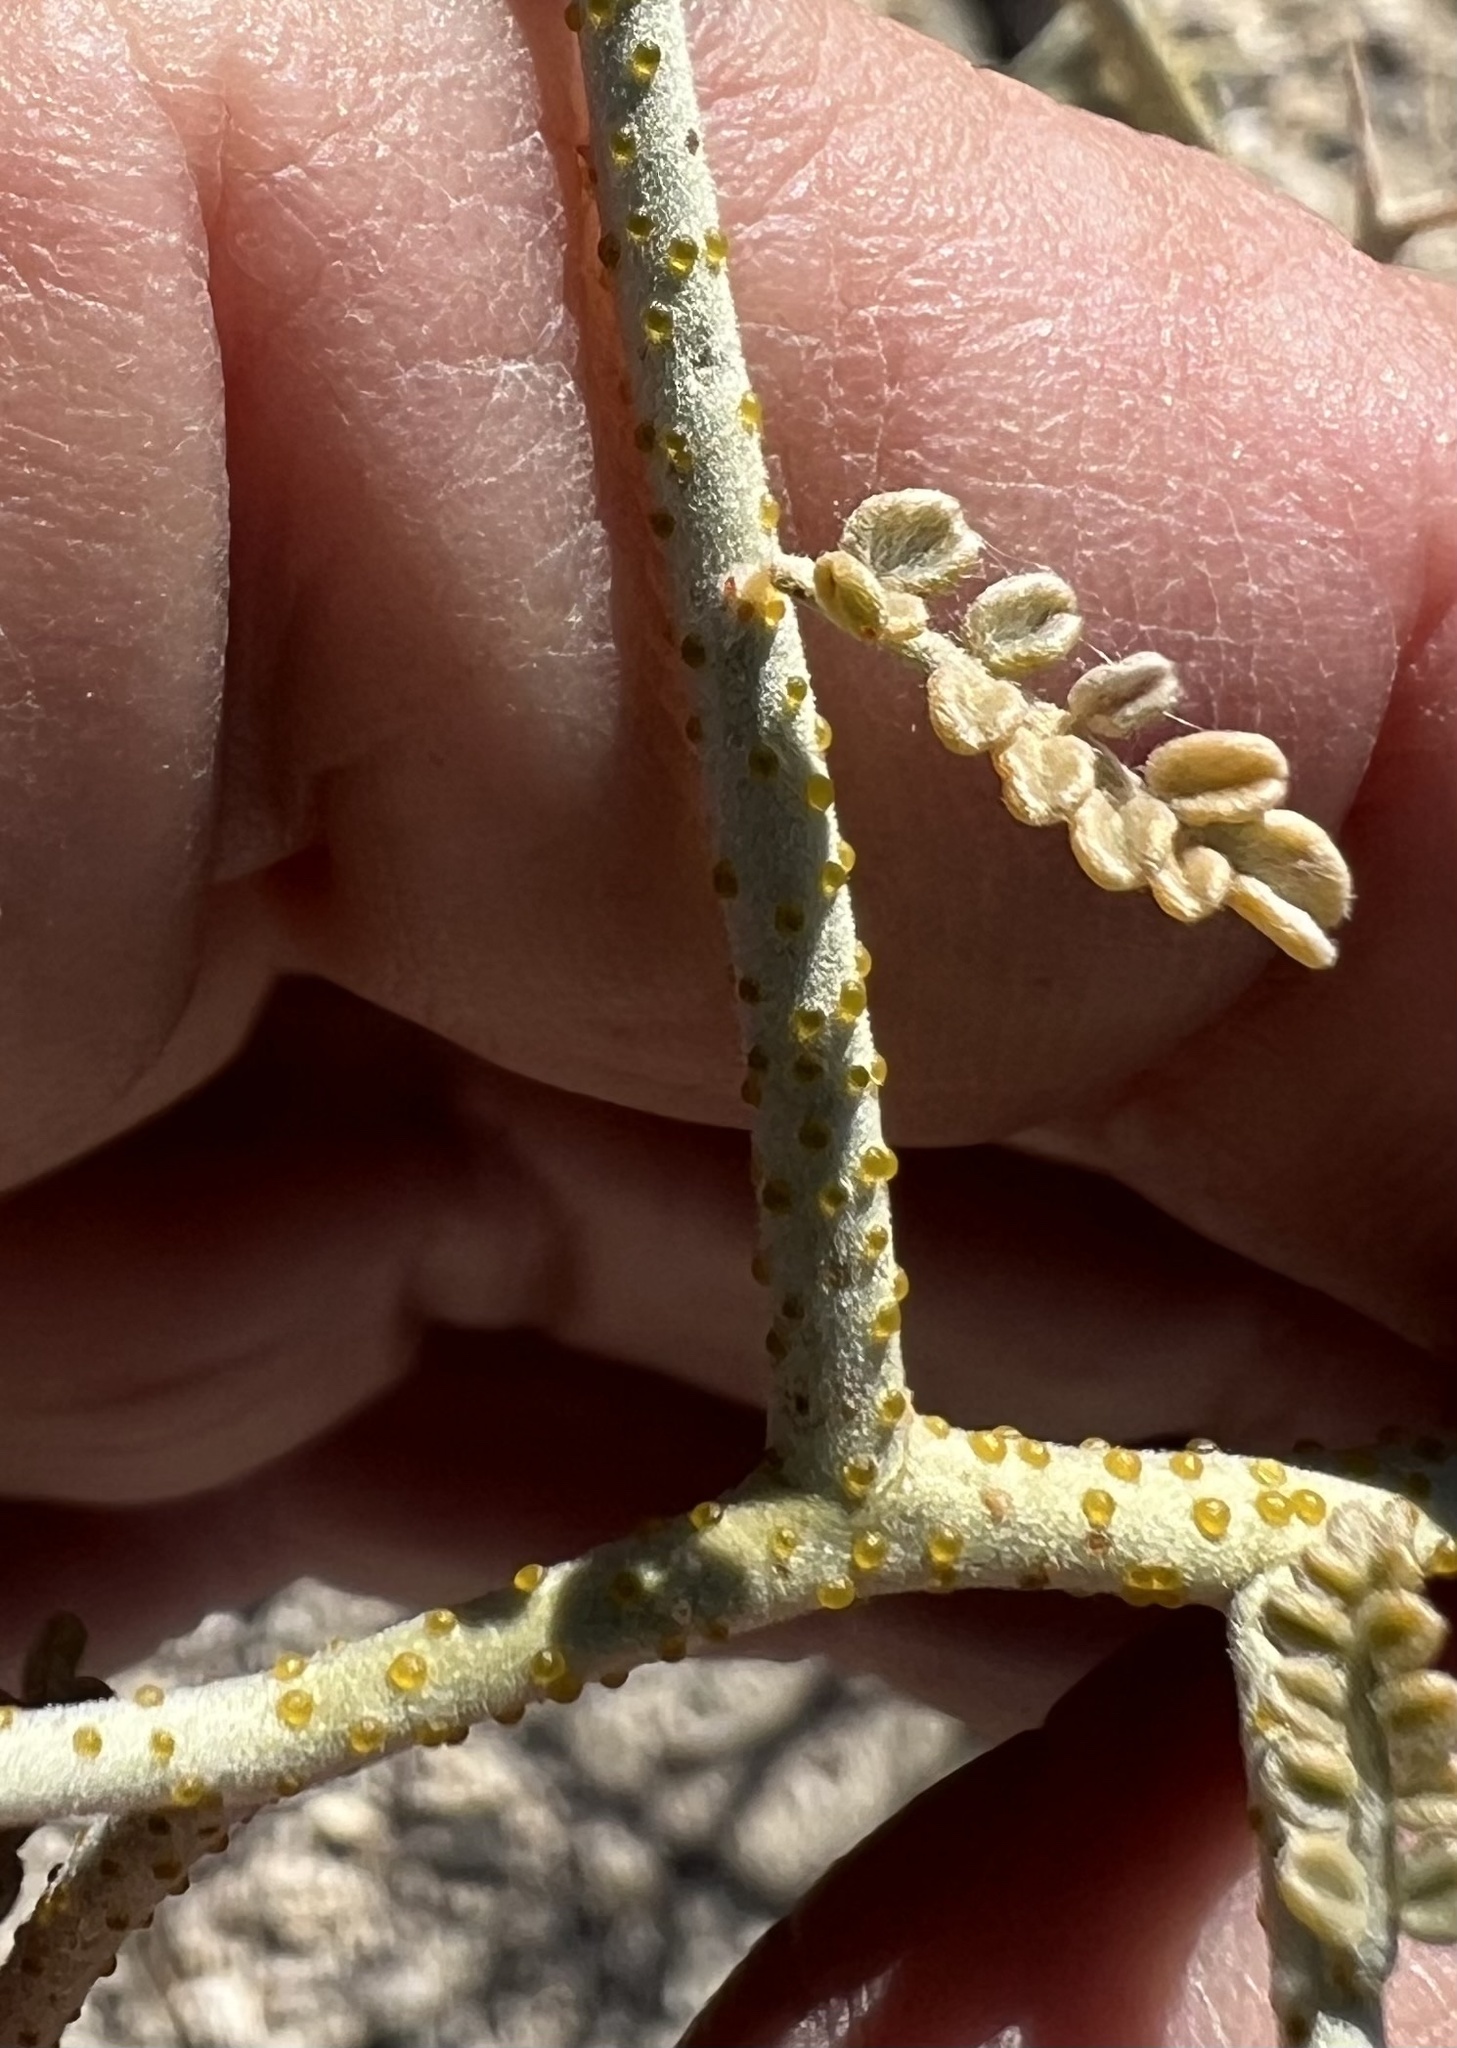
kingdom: Plantae
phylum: Tracheophyta
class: Magnoliopsida
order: Fabales
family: Fabaceae
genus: Psorothamnus
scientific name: Psorothamnus polydenius
